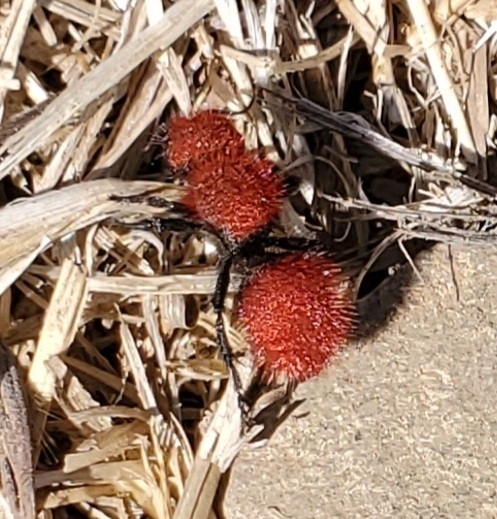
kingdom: Animalia
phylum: Arthropoda
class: Insecta
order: Hymenoptera
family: Mutillidae
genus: Dasymutilla
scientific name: Dasymutilla
